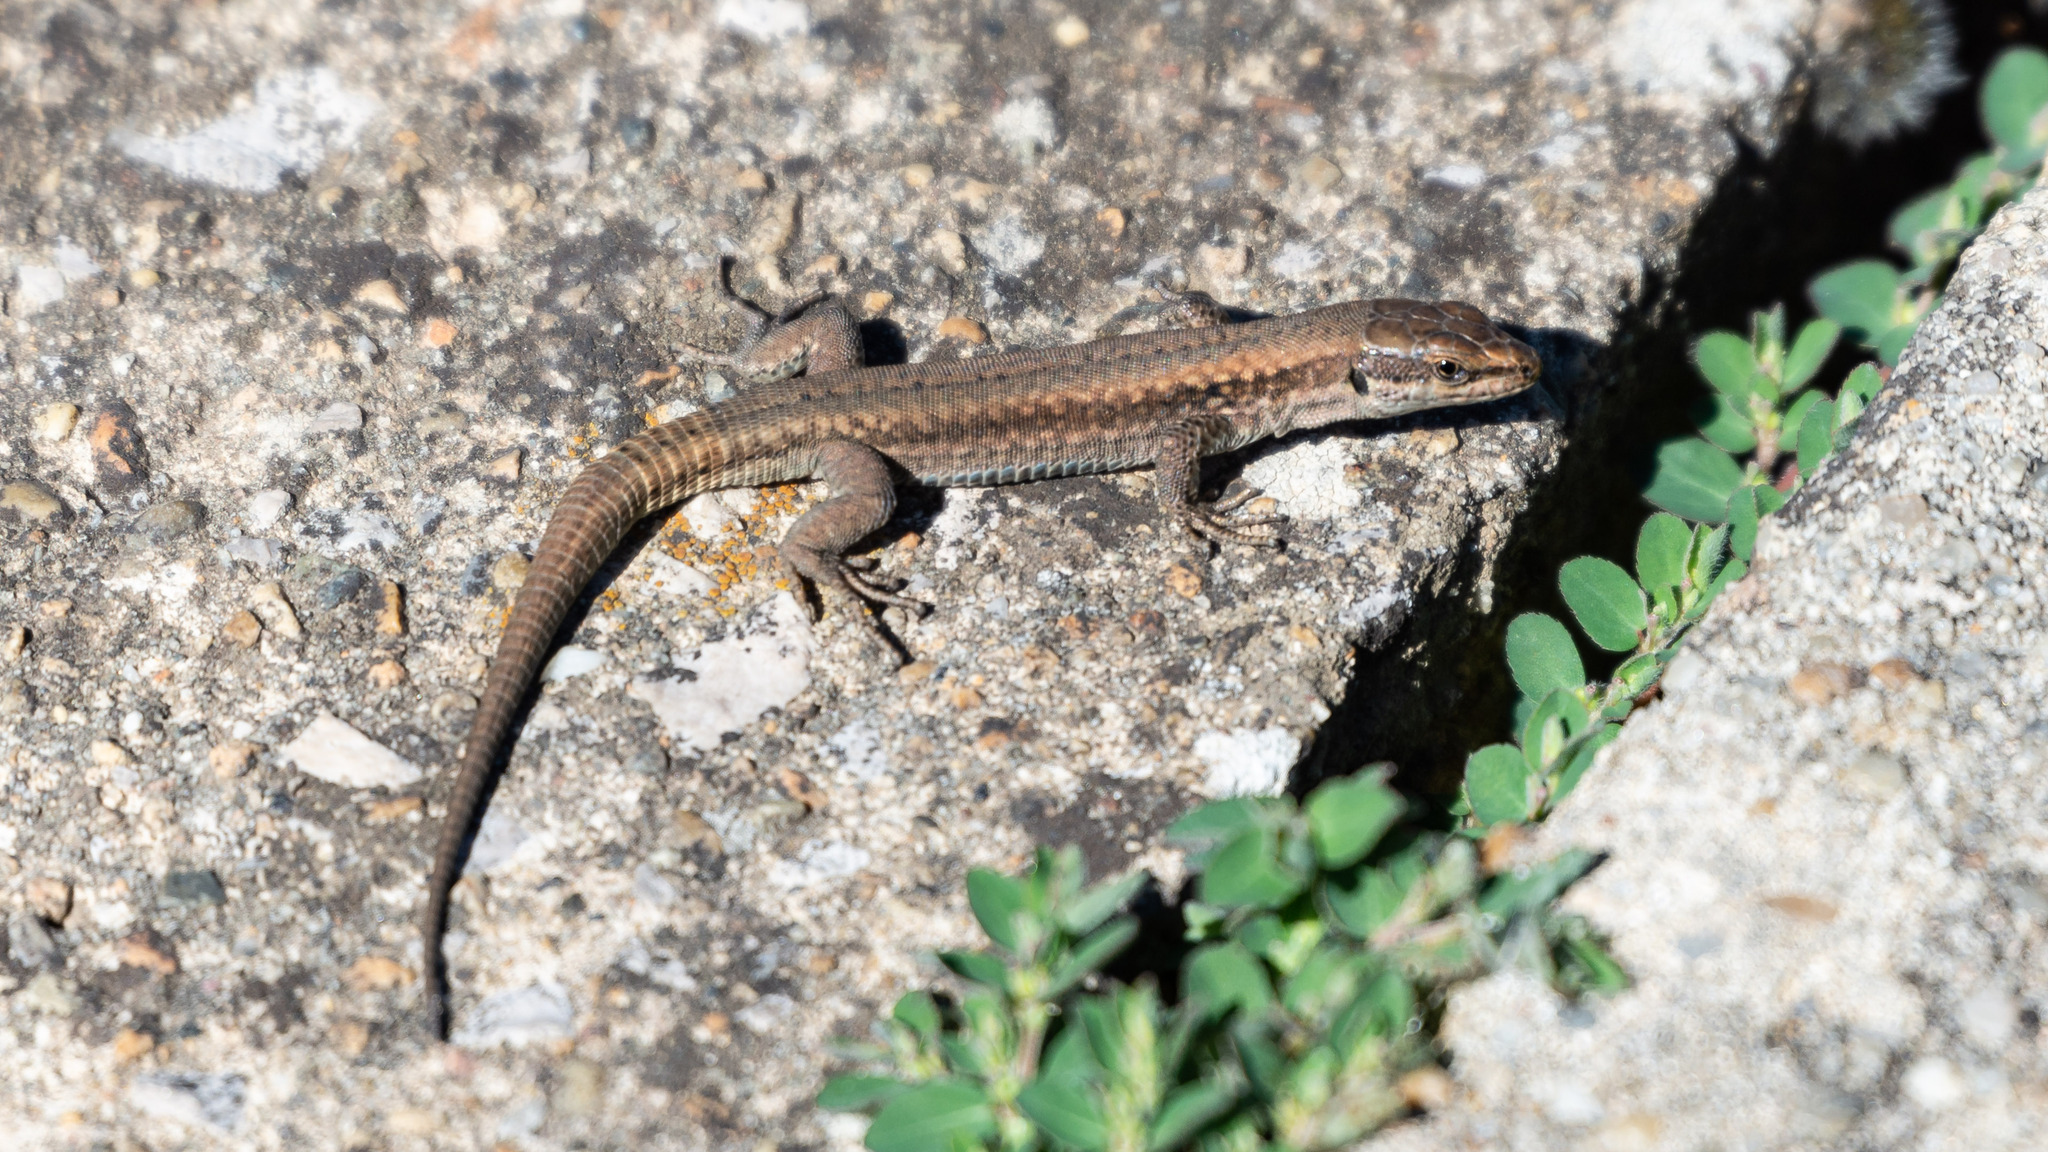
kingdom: Animalia
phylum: Chordata
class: Squamata
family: Lacertidae
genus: Podarcis
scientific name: Podarcis muralis
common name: Common wall lizard
